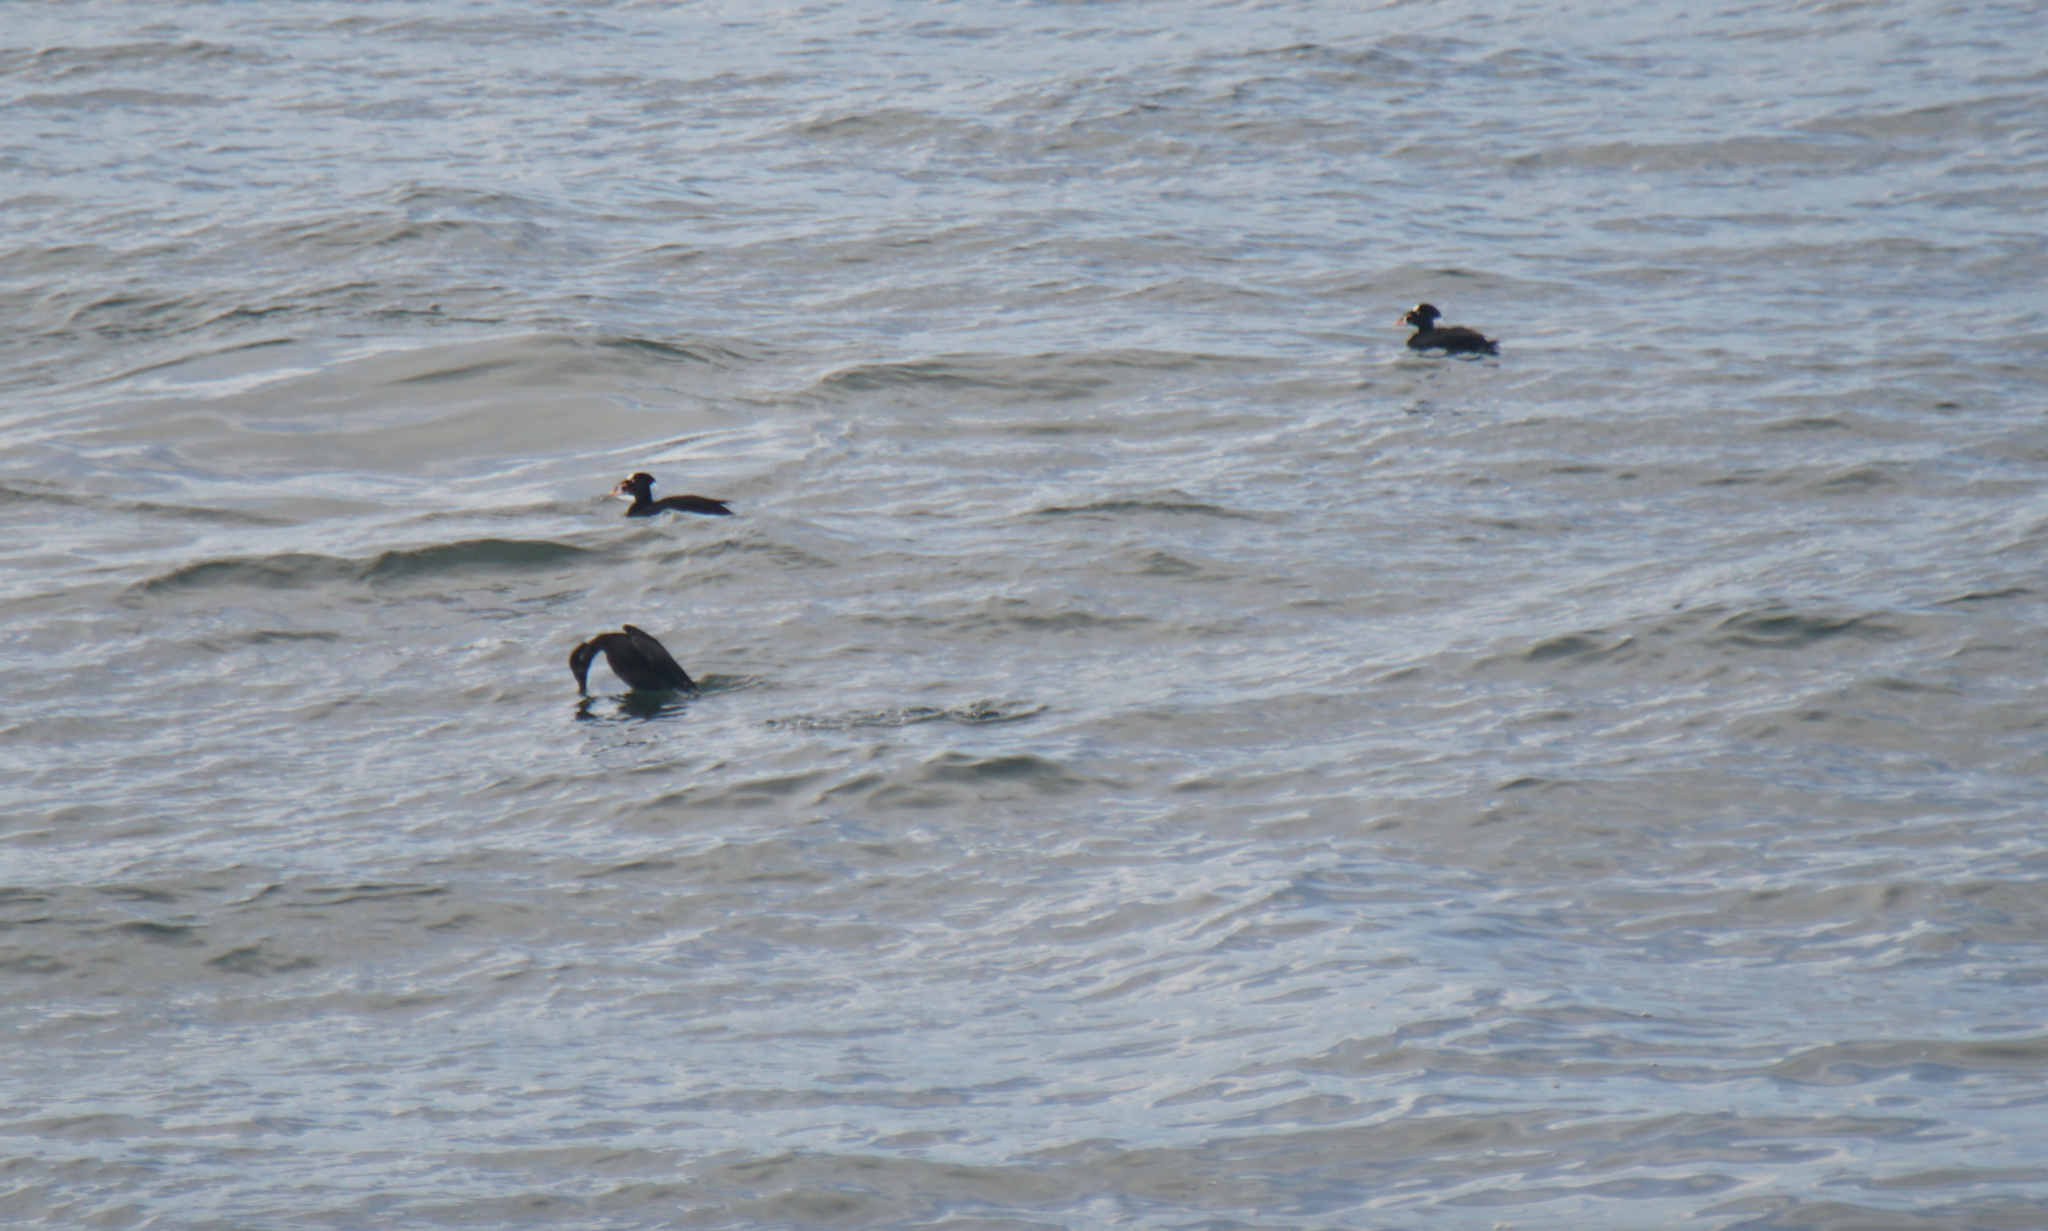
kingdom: Animalia
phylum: Chordata
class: Aves
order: Anseriformes
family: Anatidae
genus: Melanitta
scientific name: Melanitta perspicillata
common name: Surf scoter
